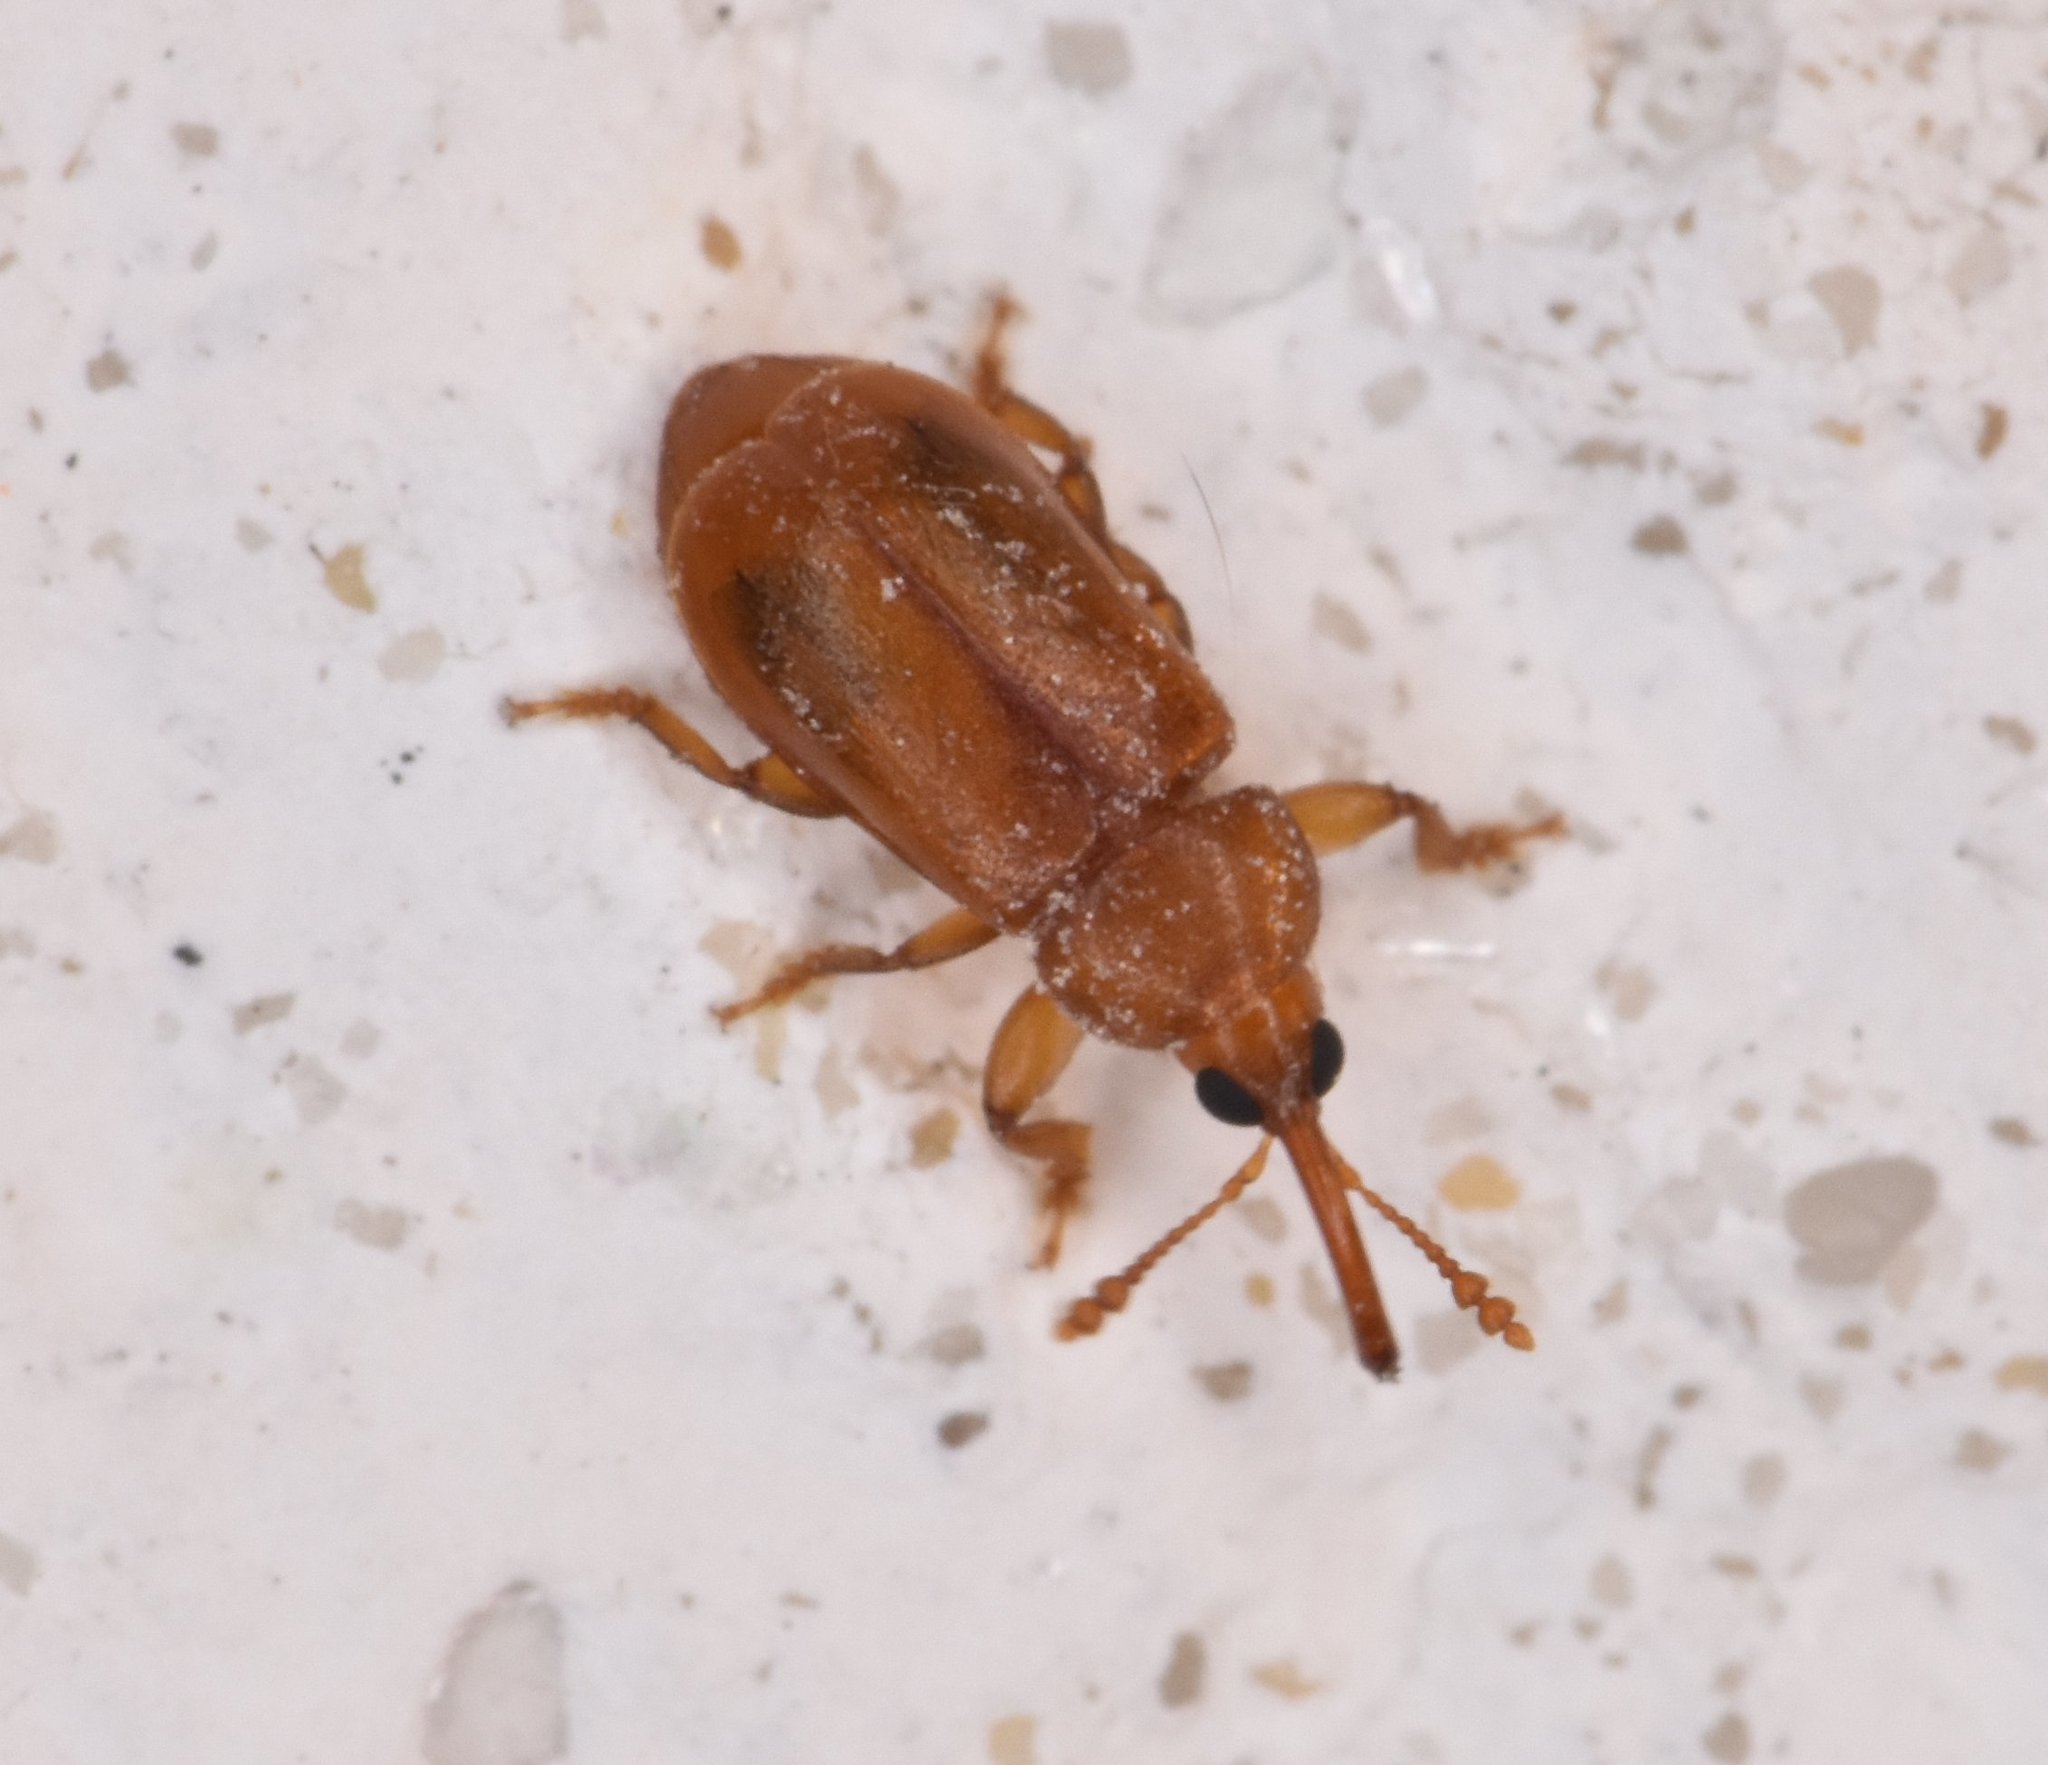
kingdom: Animalia
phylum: Arthropoda
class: Insecta
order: Coleoptera
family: Belidae
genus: Rhopalotria
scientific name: Rhopalotria furfuracea
